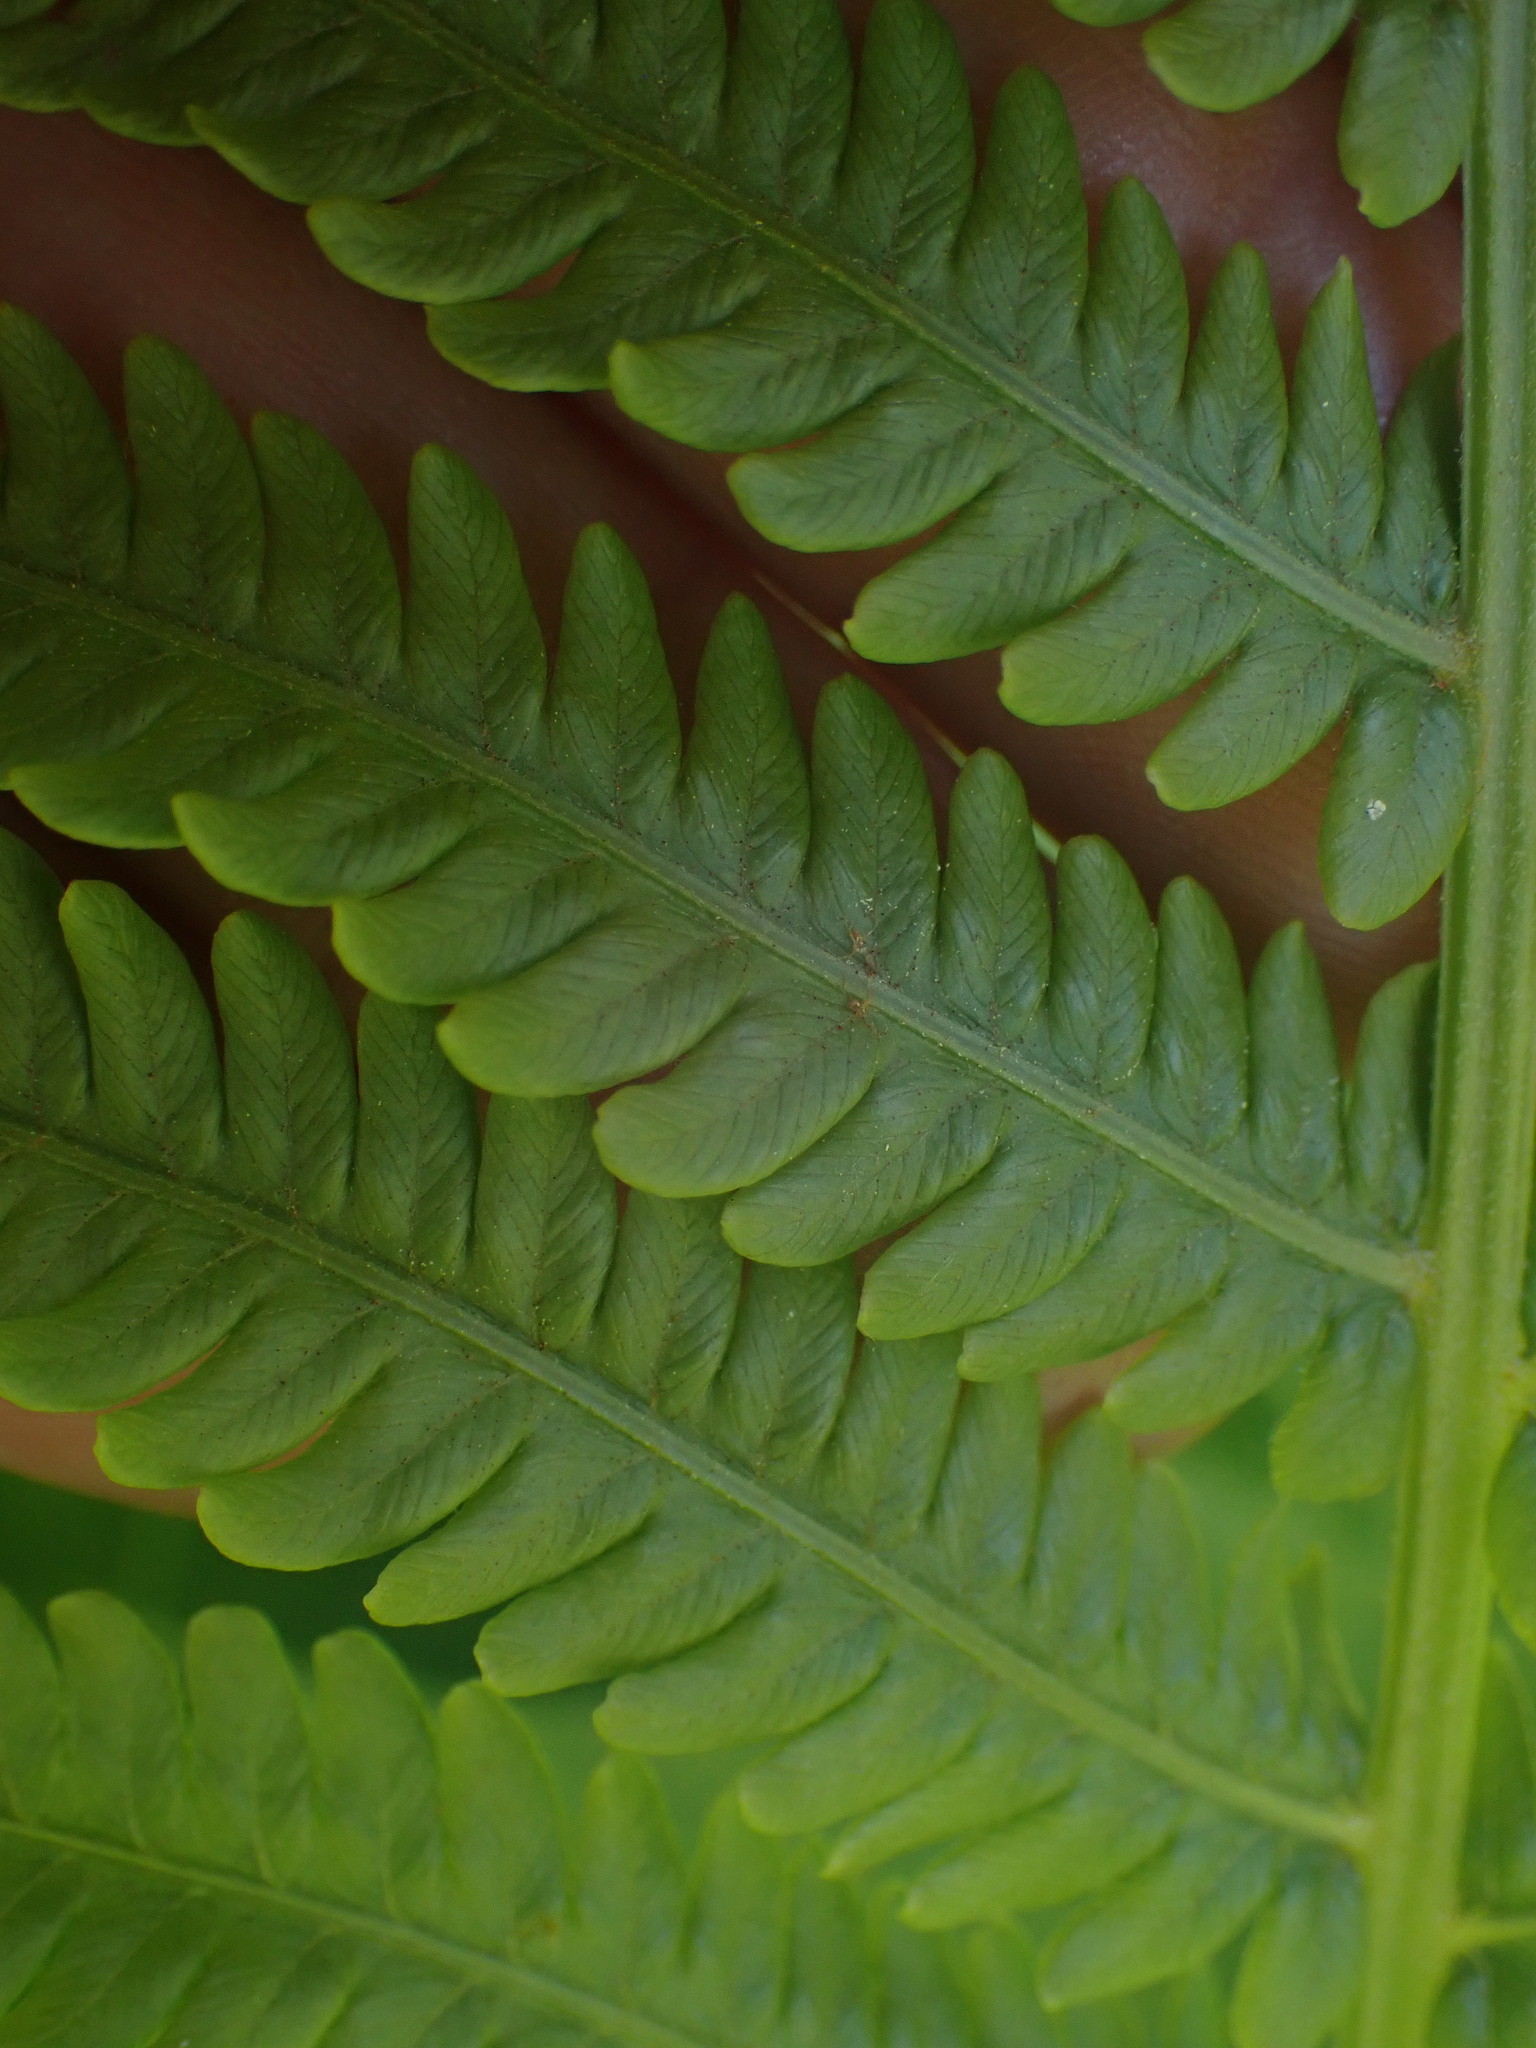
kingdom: Plantae
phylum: Tracheophyta
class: Polypodiopsida
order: Polypodiales
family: Onocleaceae
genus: Matteuccia
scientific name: Matteuccia struthiopteris
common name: Ostrich fern
